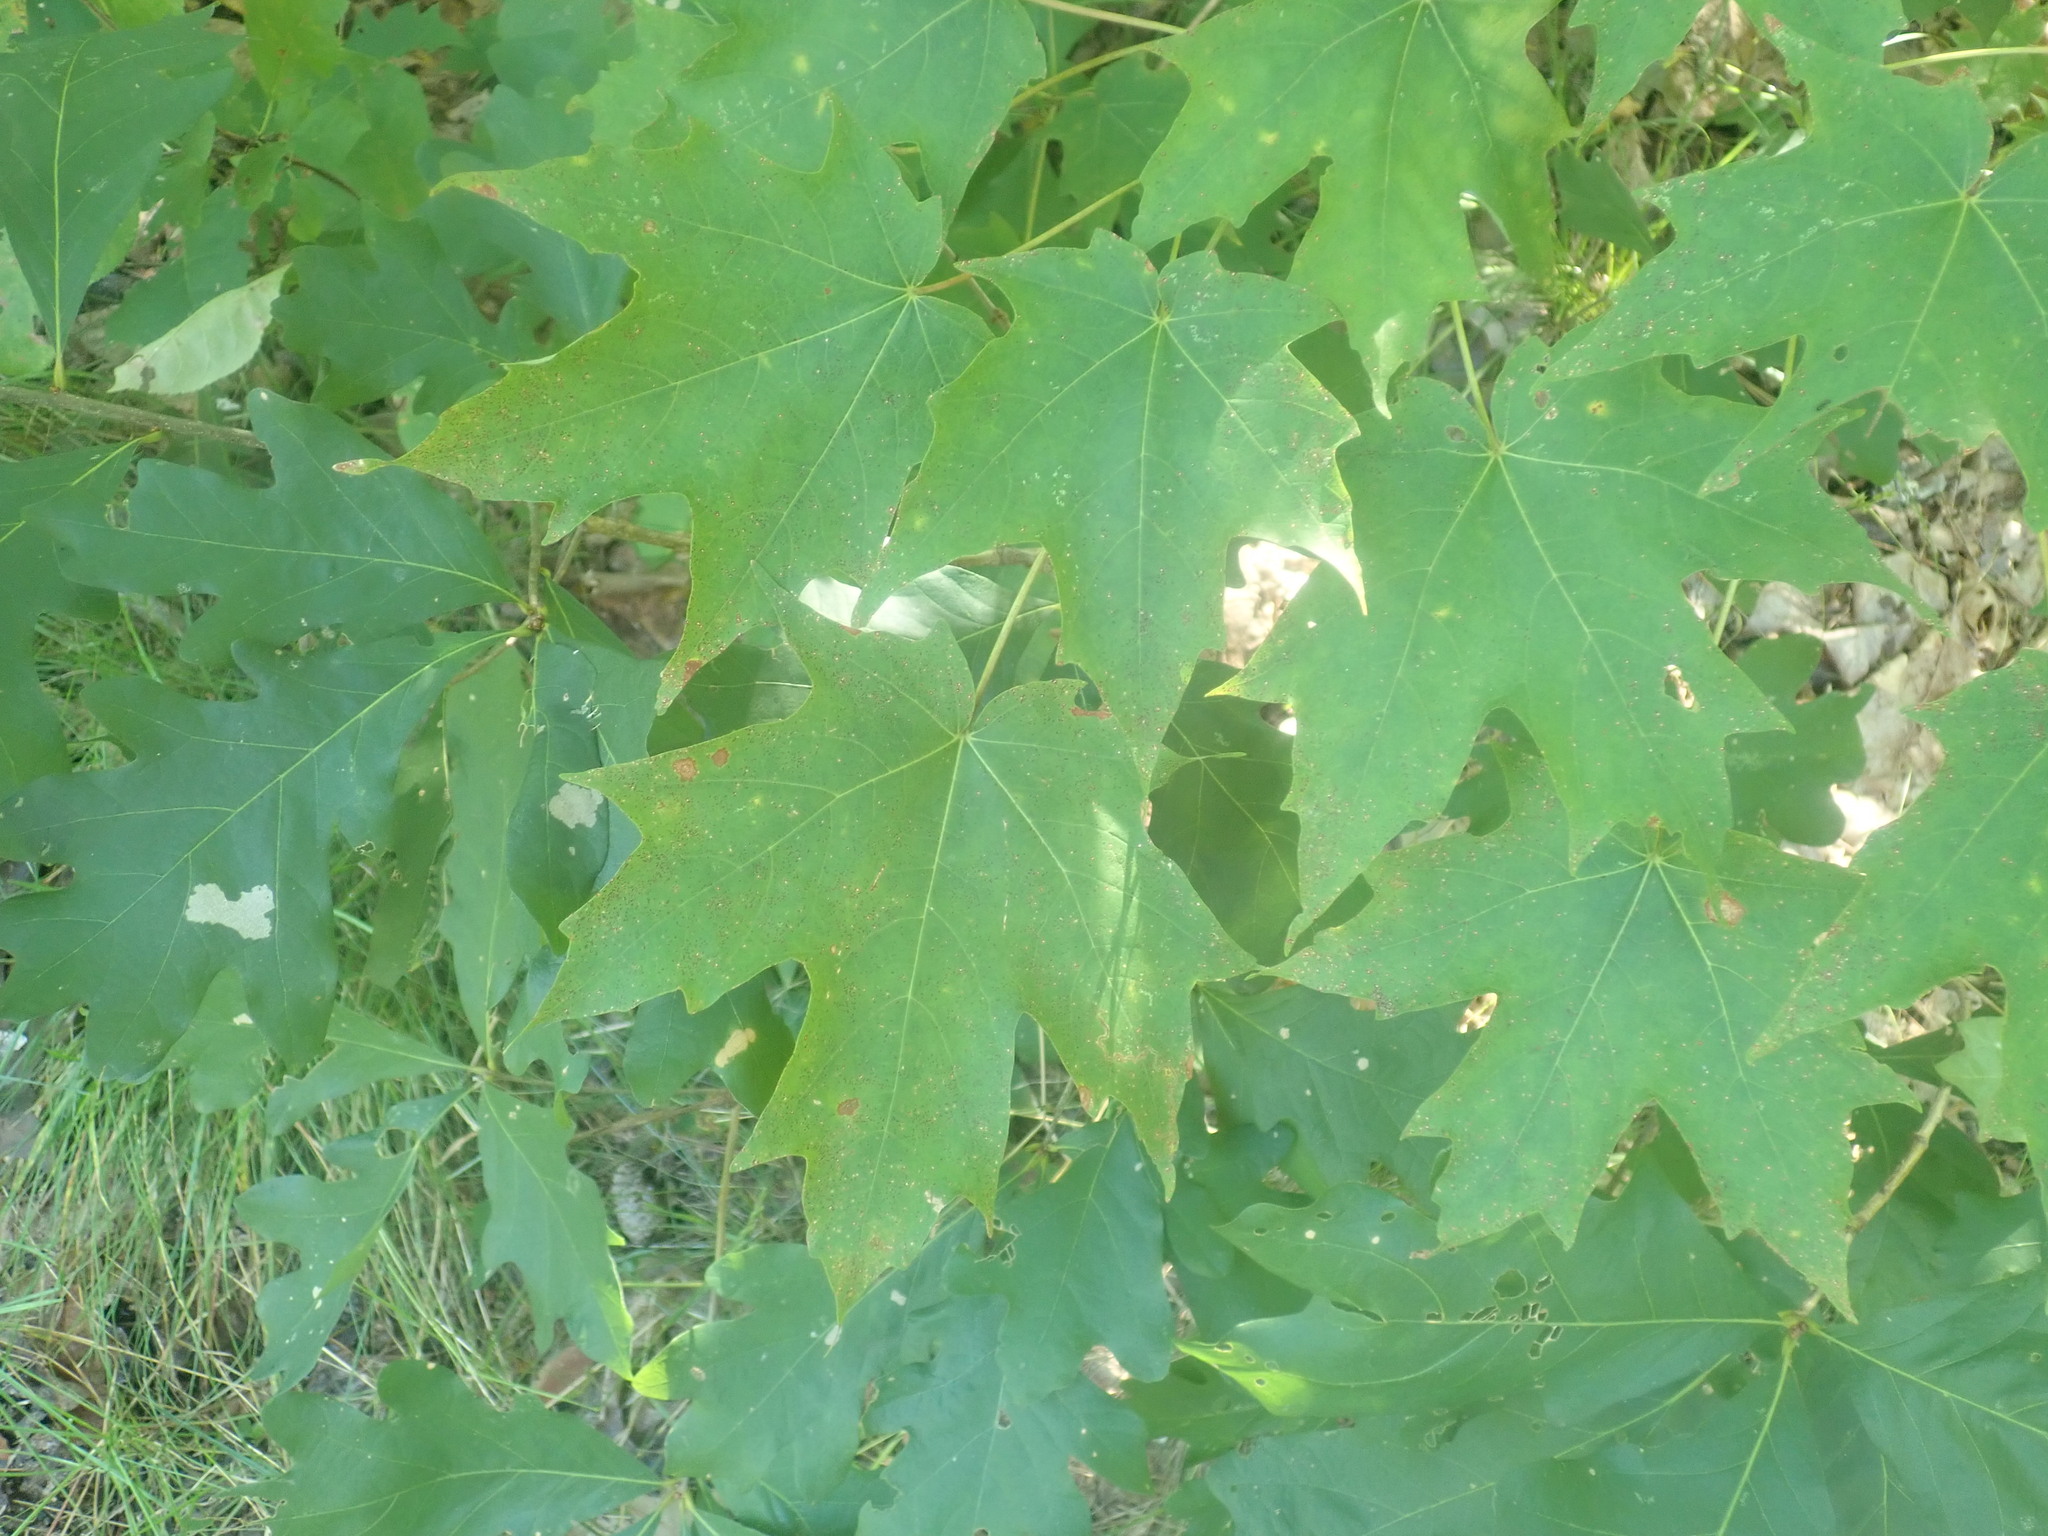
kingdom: Plantae
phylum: Tracheophyta
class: Magnoliopsida
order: Sapindales
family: Sapindaceae
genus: Acer
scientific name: Acer saccharum
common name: Sugar maple
